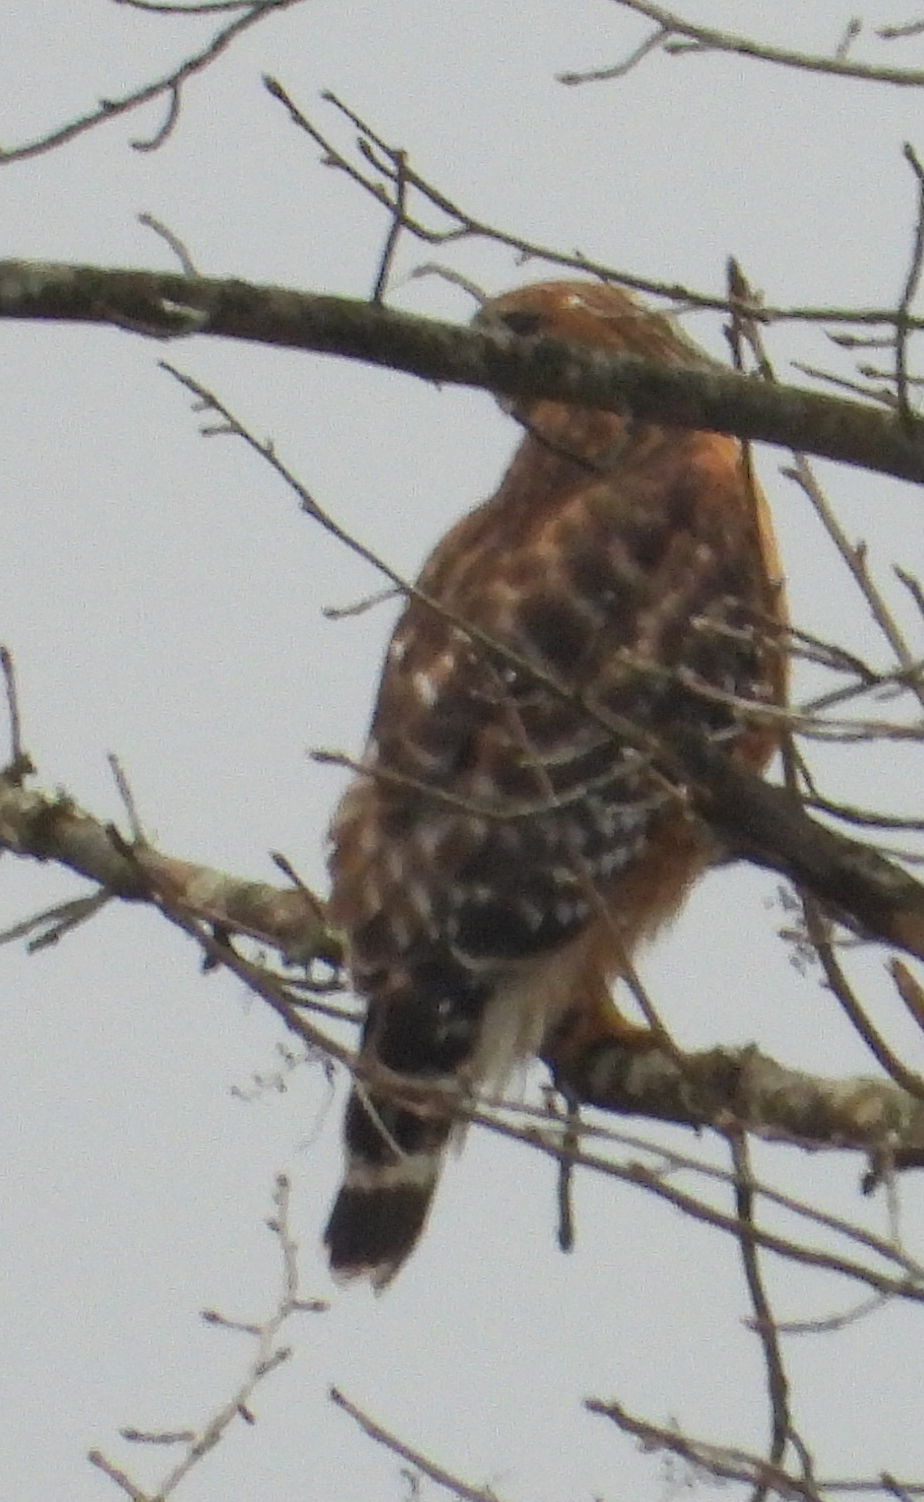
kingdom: Animalia
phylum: Chordata
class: Aves
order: Accipitriformes
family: Accipitridae
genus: Buteo
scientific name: Buteo lineatus
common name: Red-shouldered hawk
